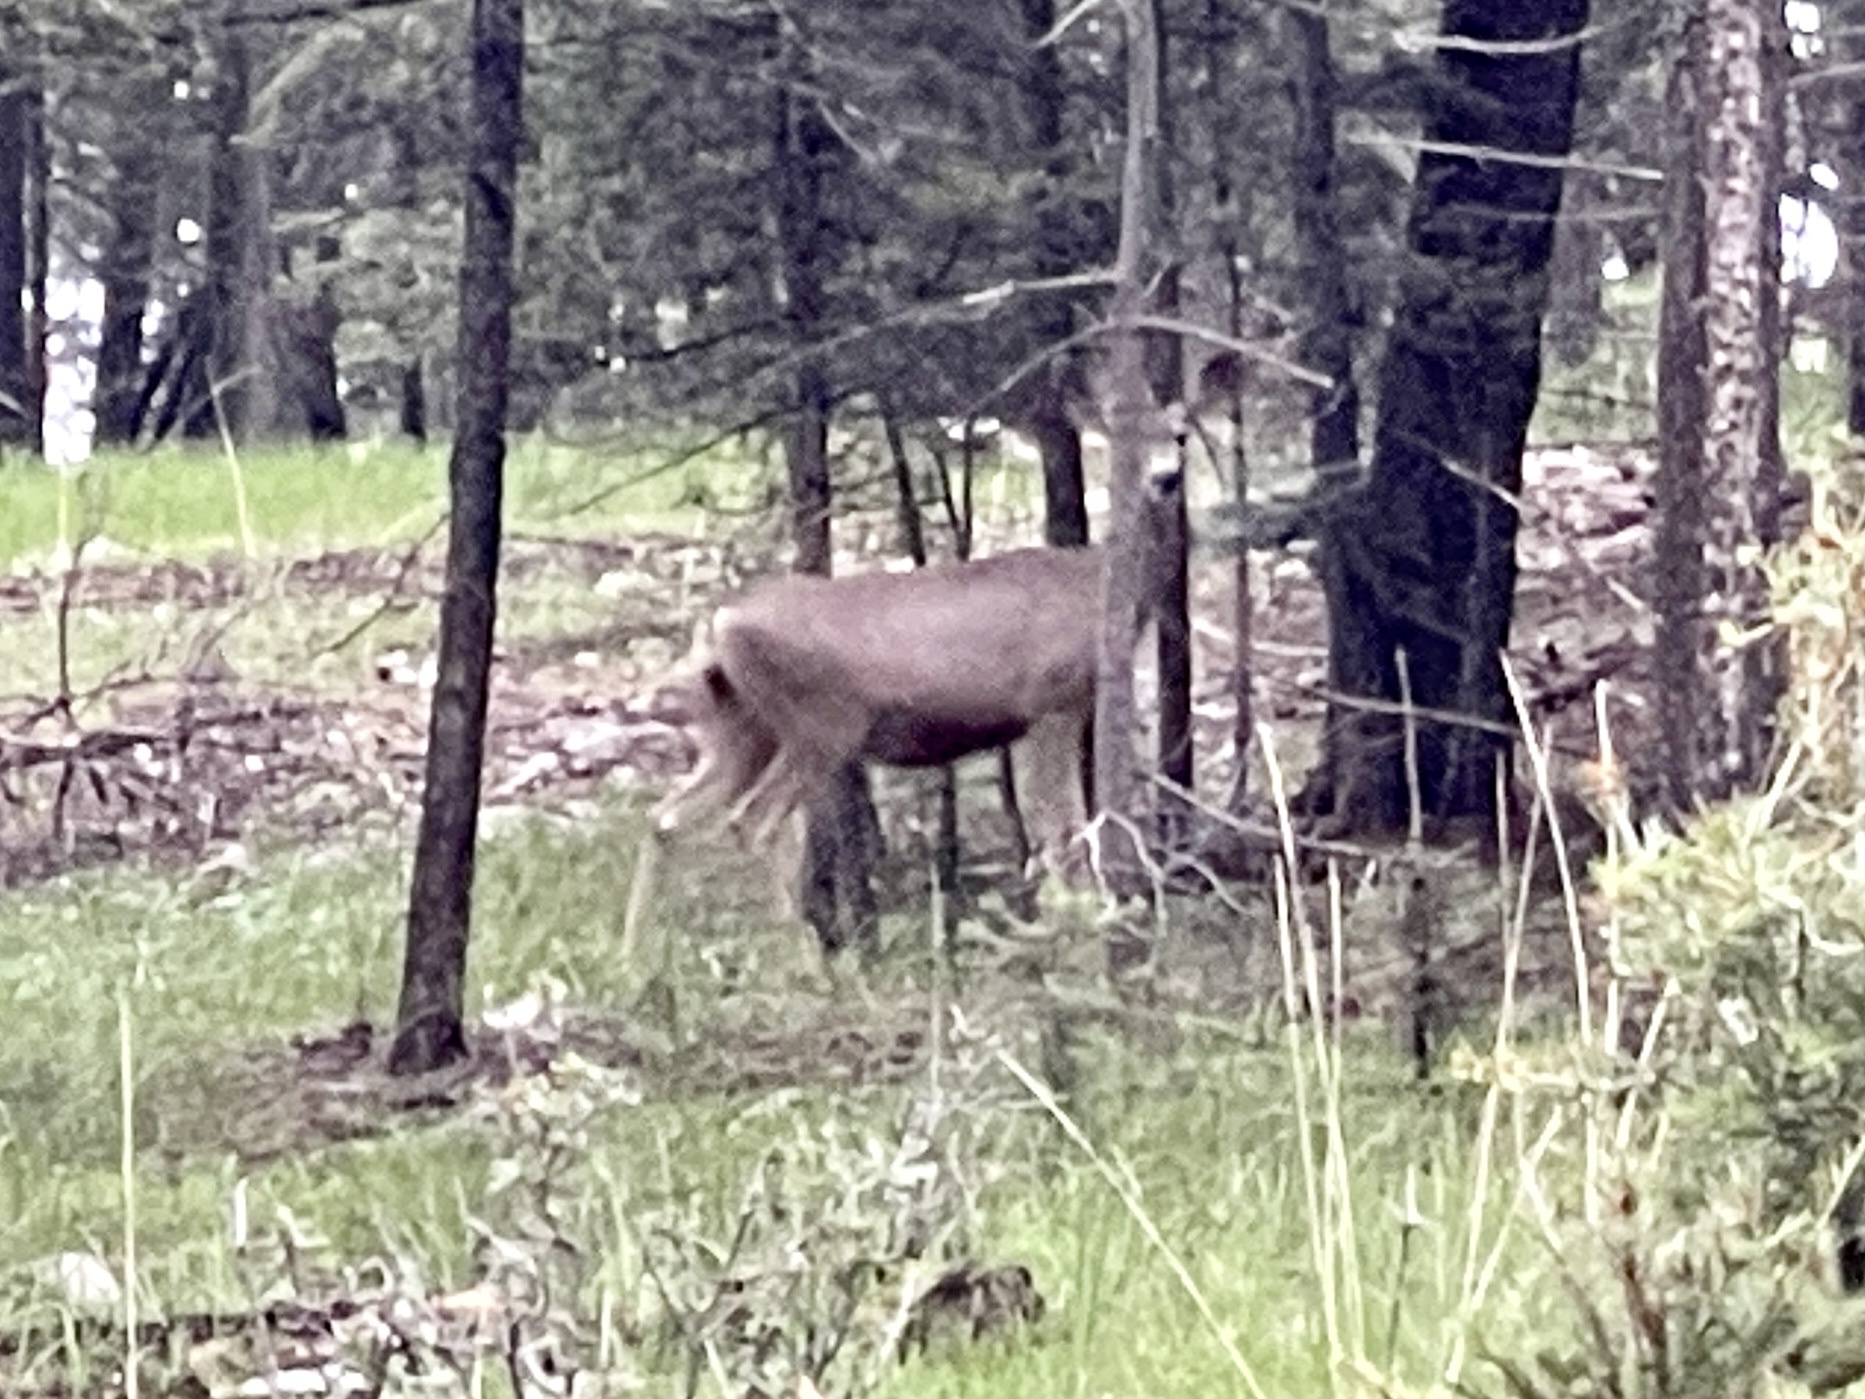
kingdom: Animalia
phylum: Chordata
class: Mammalia
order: Artiodactyla
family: Cervidae
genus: Odocoileus
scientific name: Odocoileus hemionus
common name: Mule deer
